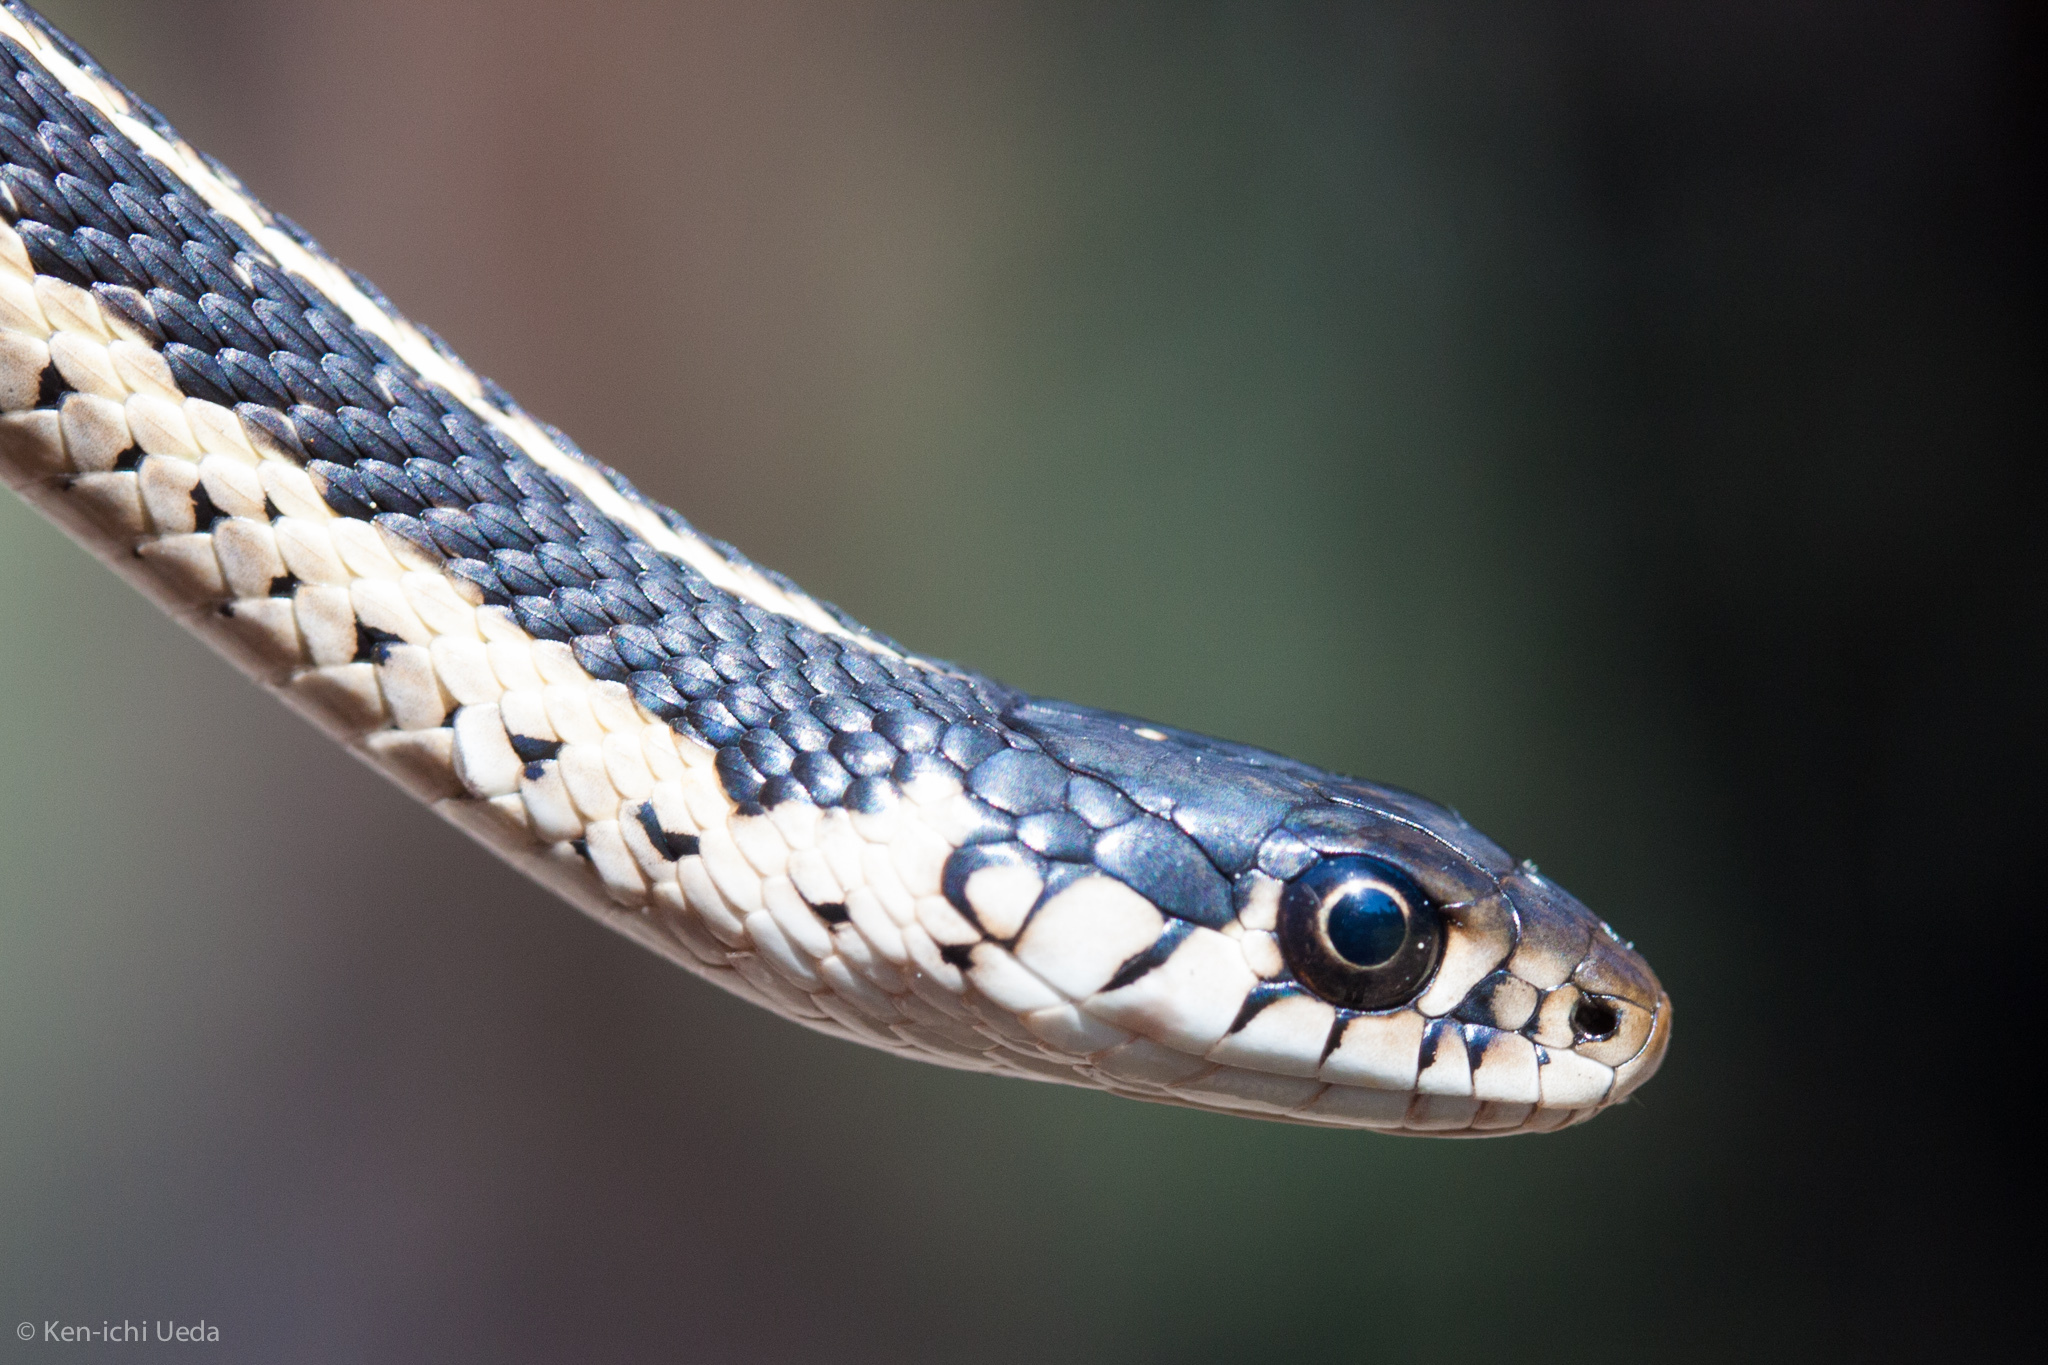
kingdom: Animalia
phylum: Chordata
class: Squamata
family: Colubridae
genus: Thamnophis
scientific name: Thamnophis elegans
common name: Western terrestrial garter snake
